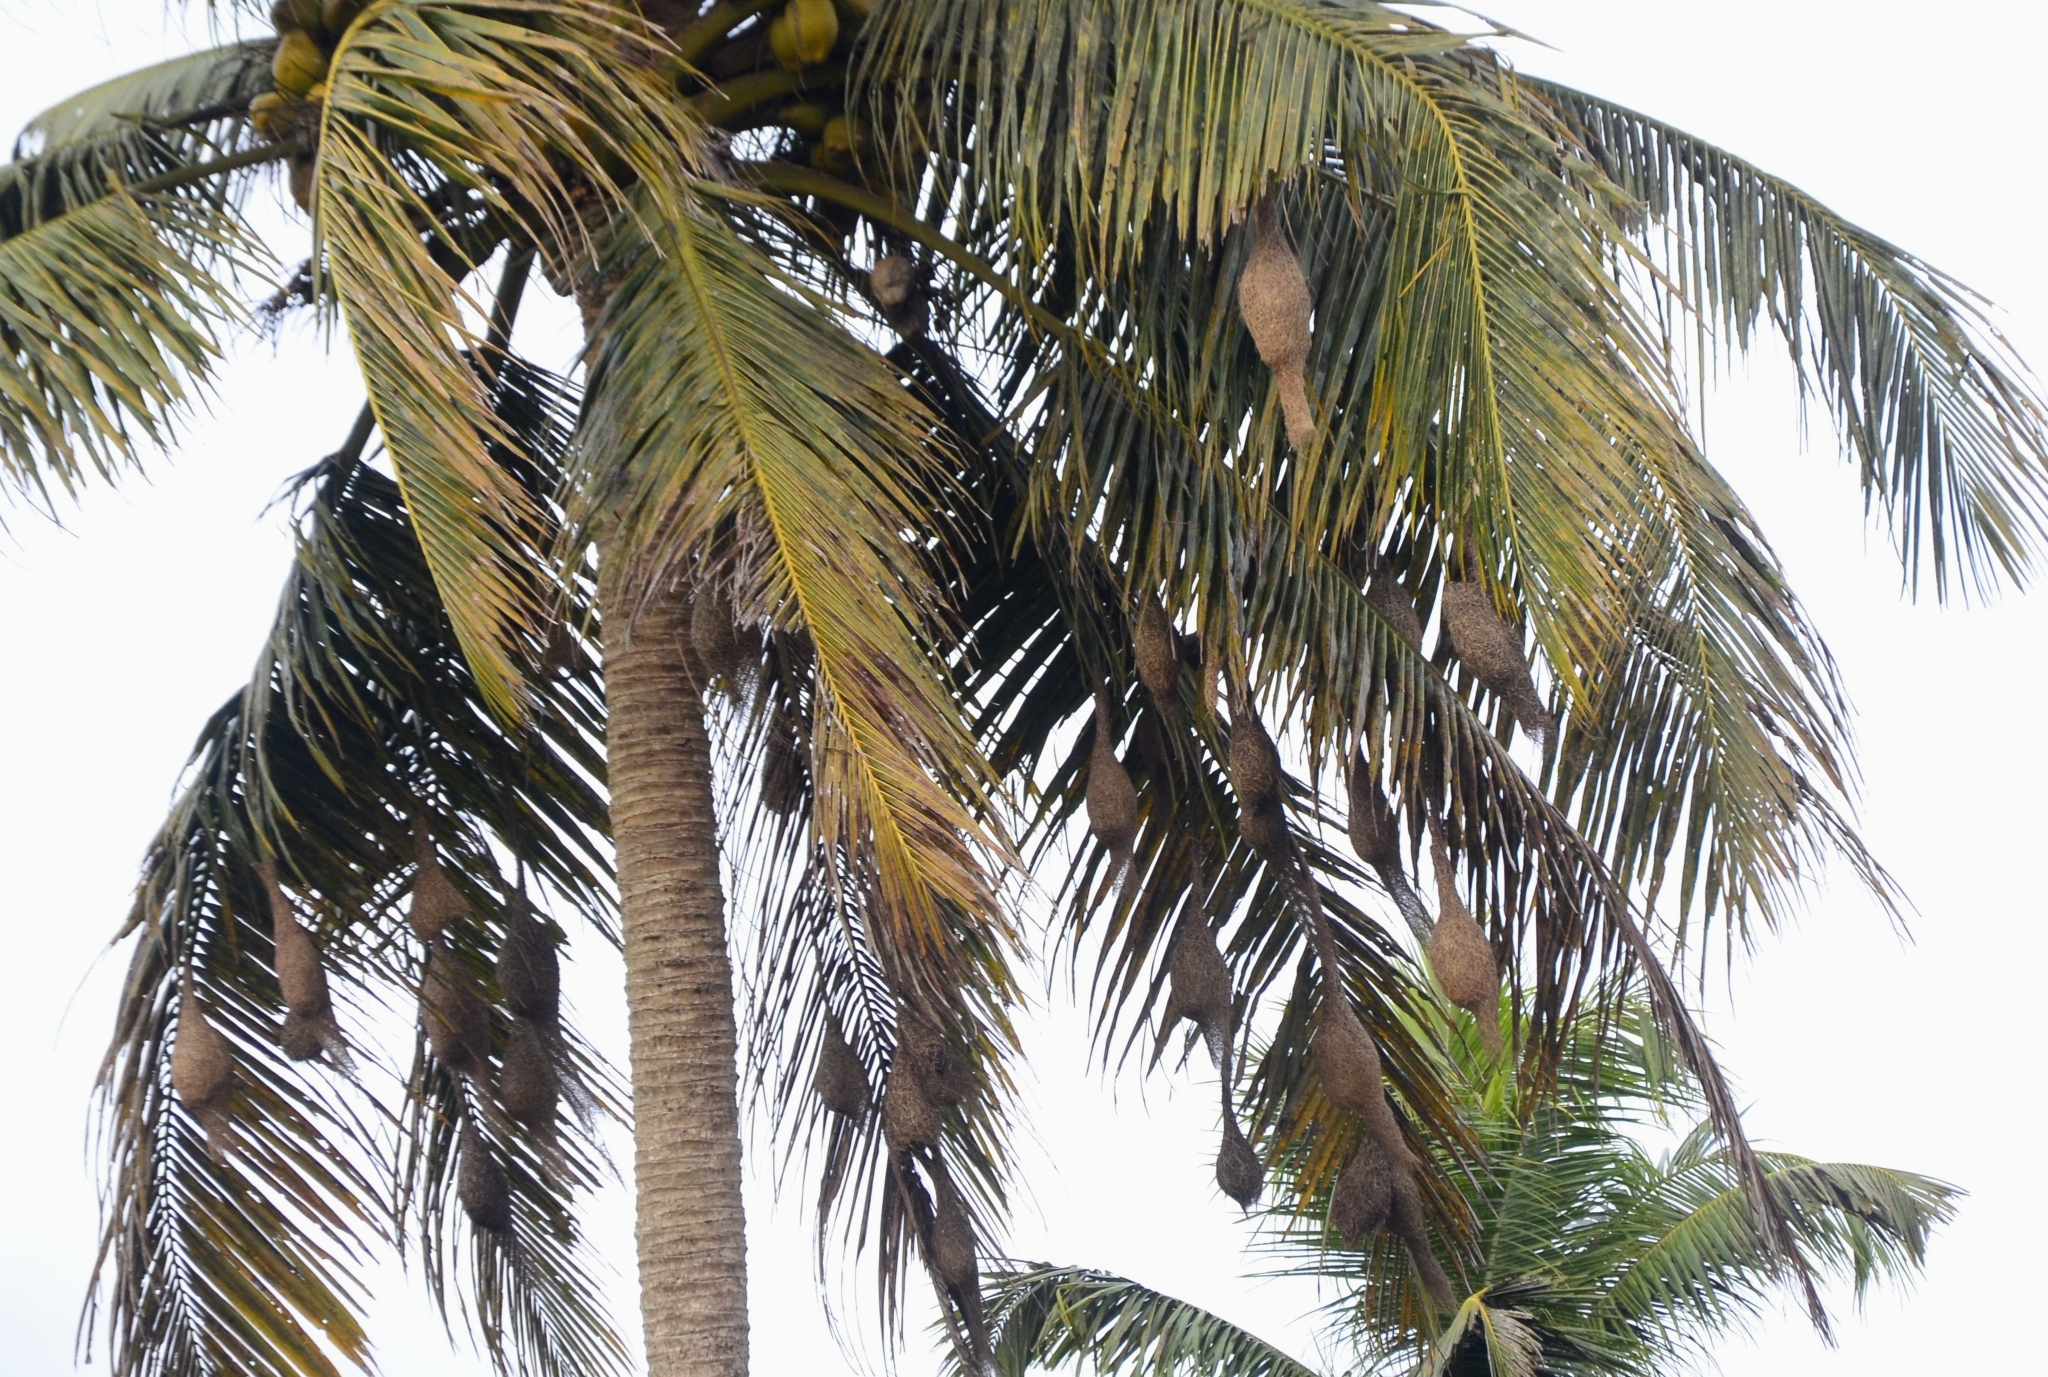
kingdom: Animalia
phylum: Chordata
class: Aves
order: Passeriformes
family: Ploceidae
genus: Ploceus
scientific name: Ploceus philippinus
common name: Baya weaver
